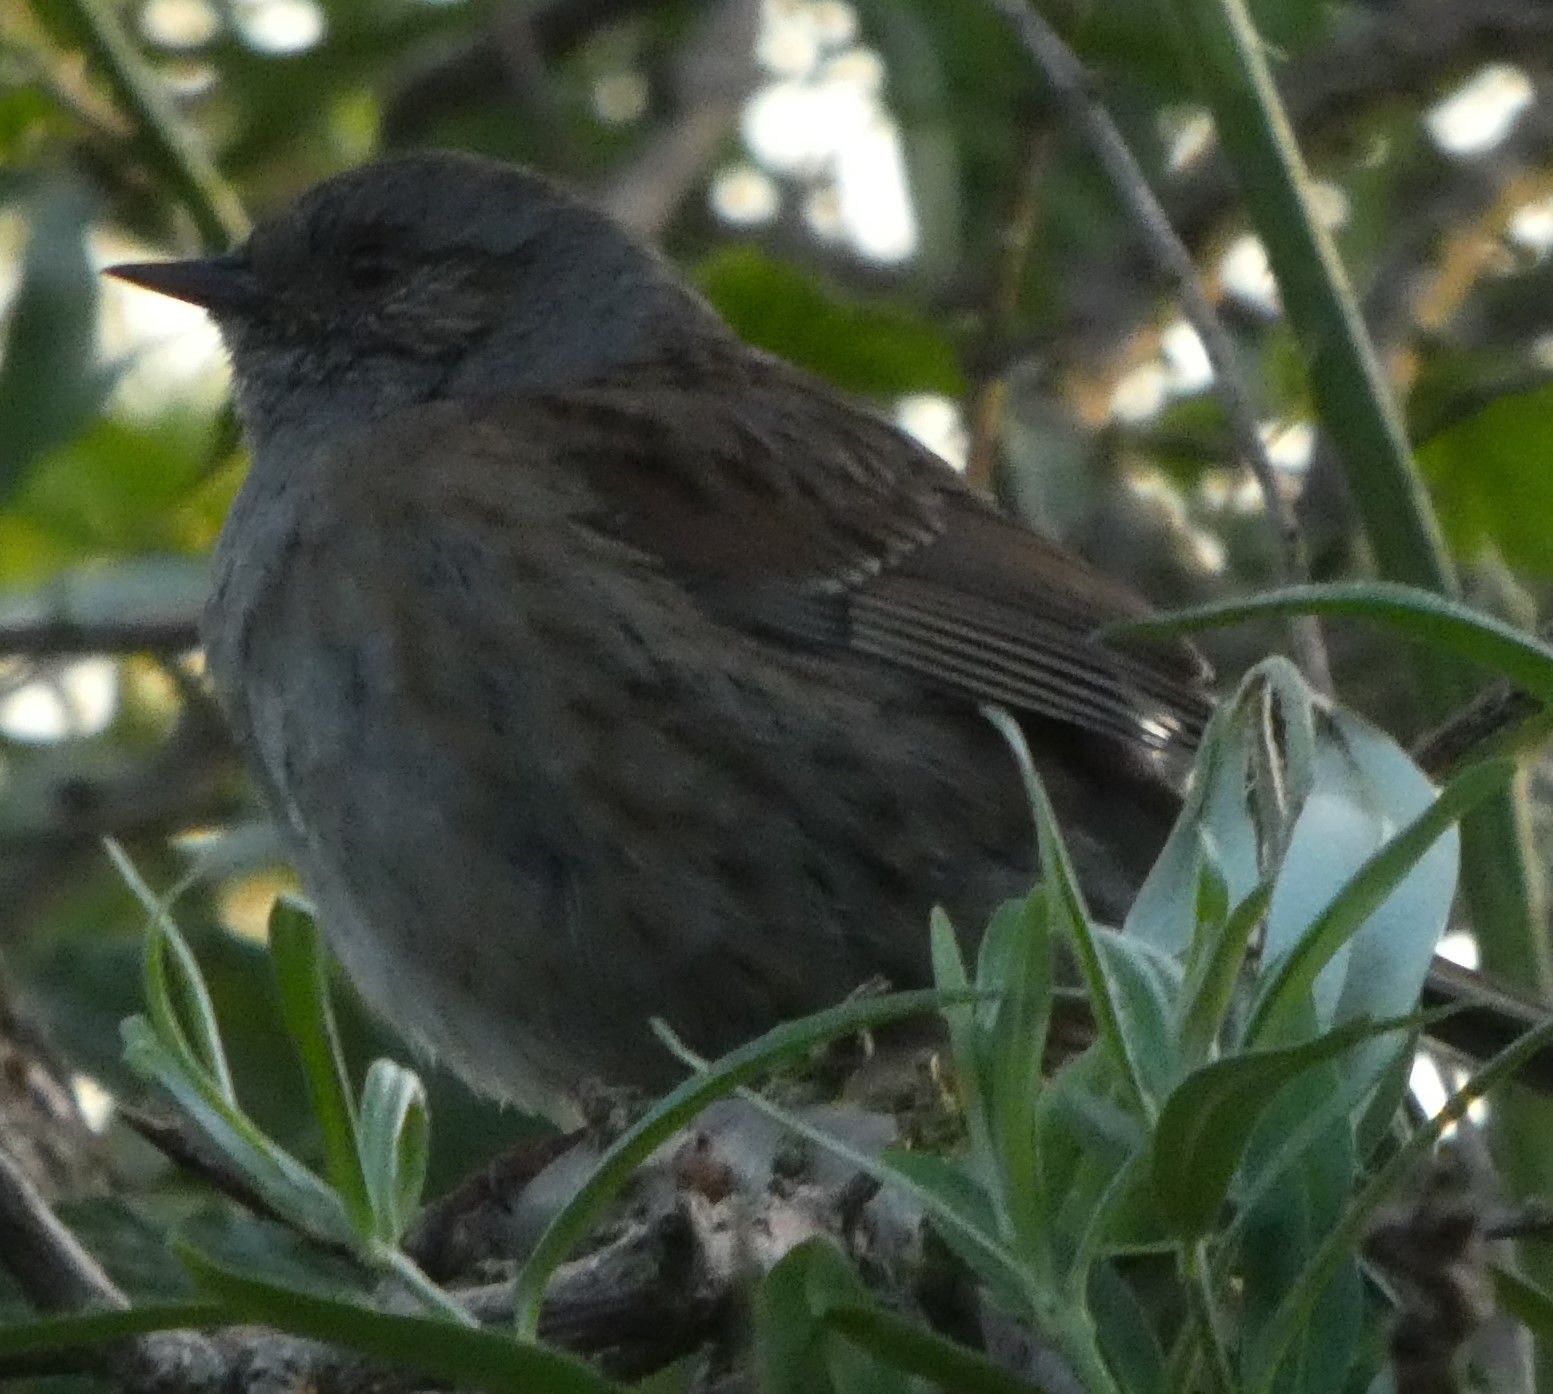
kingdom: Animalia
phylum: Chordata
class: Aves
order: Passeriformes
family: Prunellidae
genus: Prunella
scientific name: Prunella modularis
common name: Dunnock
